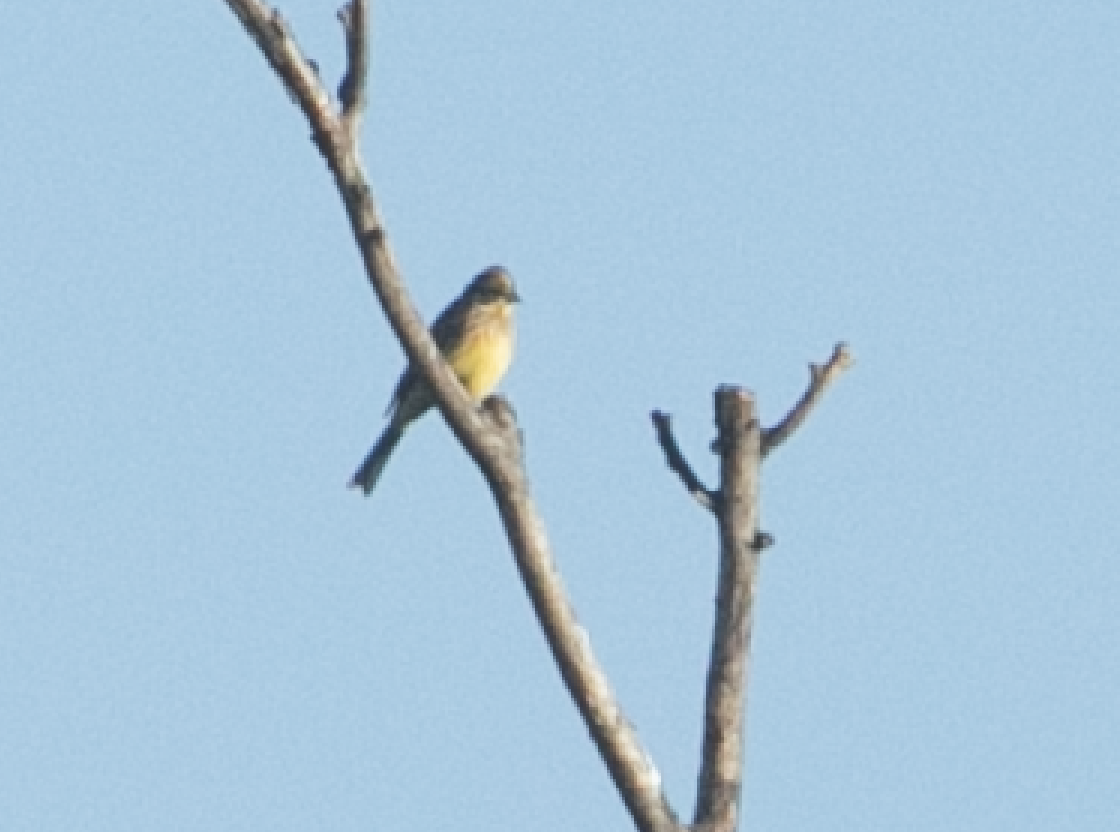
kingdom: Animalia
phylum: Chordata
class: Aves
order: Passeriformes
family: Emberizidae
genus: Emberiza
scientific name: Emberiza citrinella
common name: Yellowhammer
